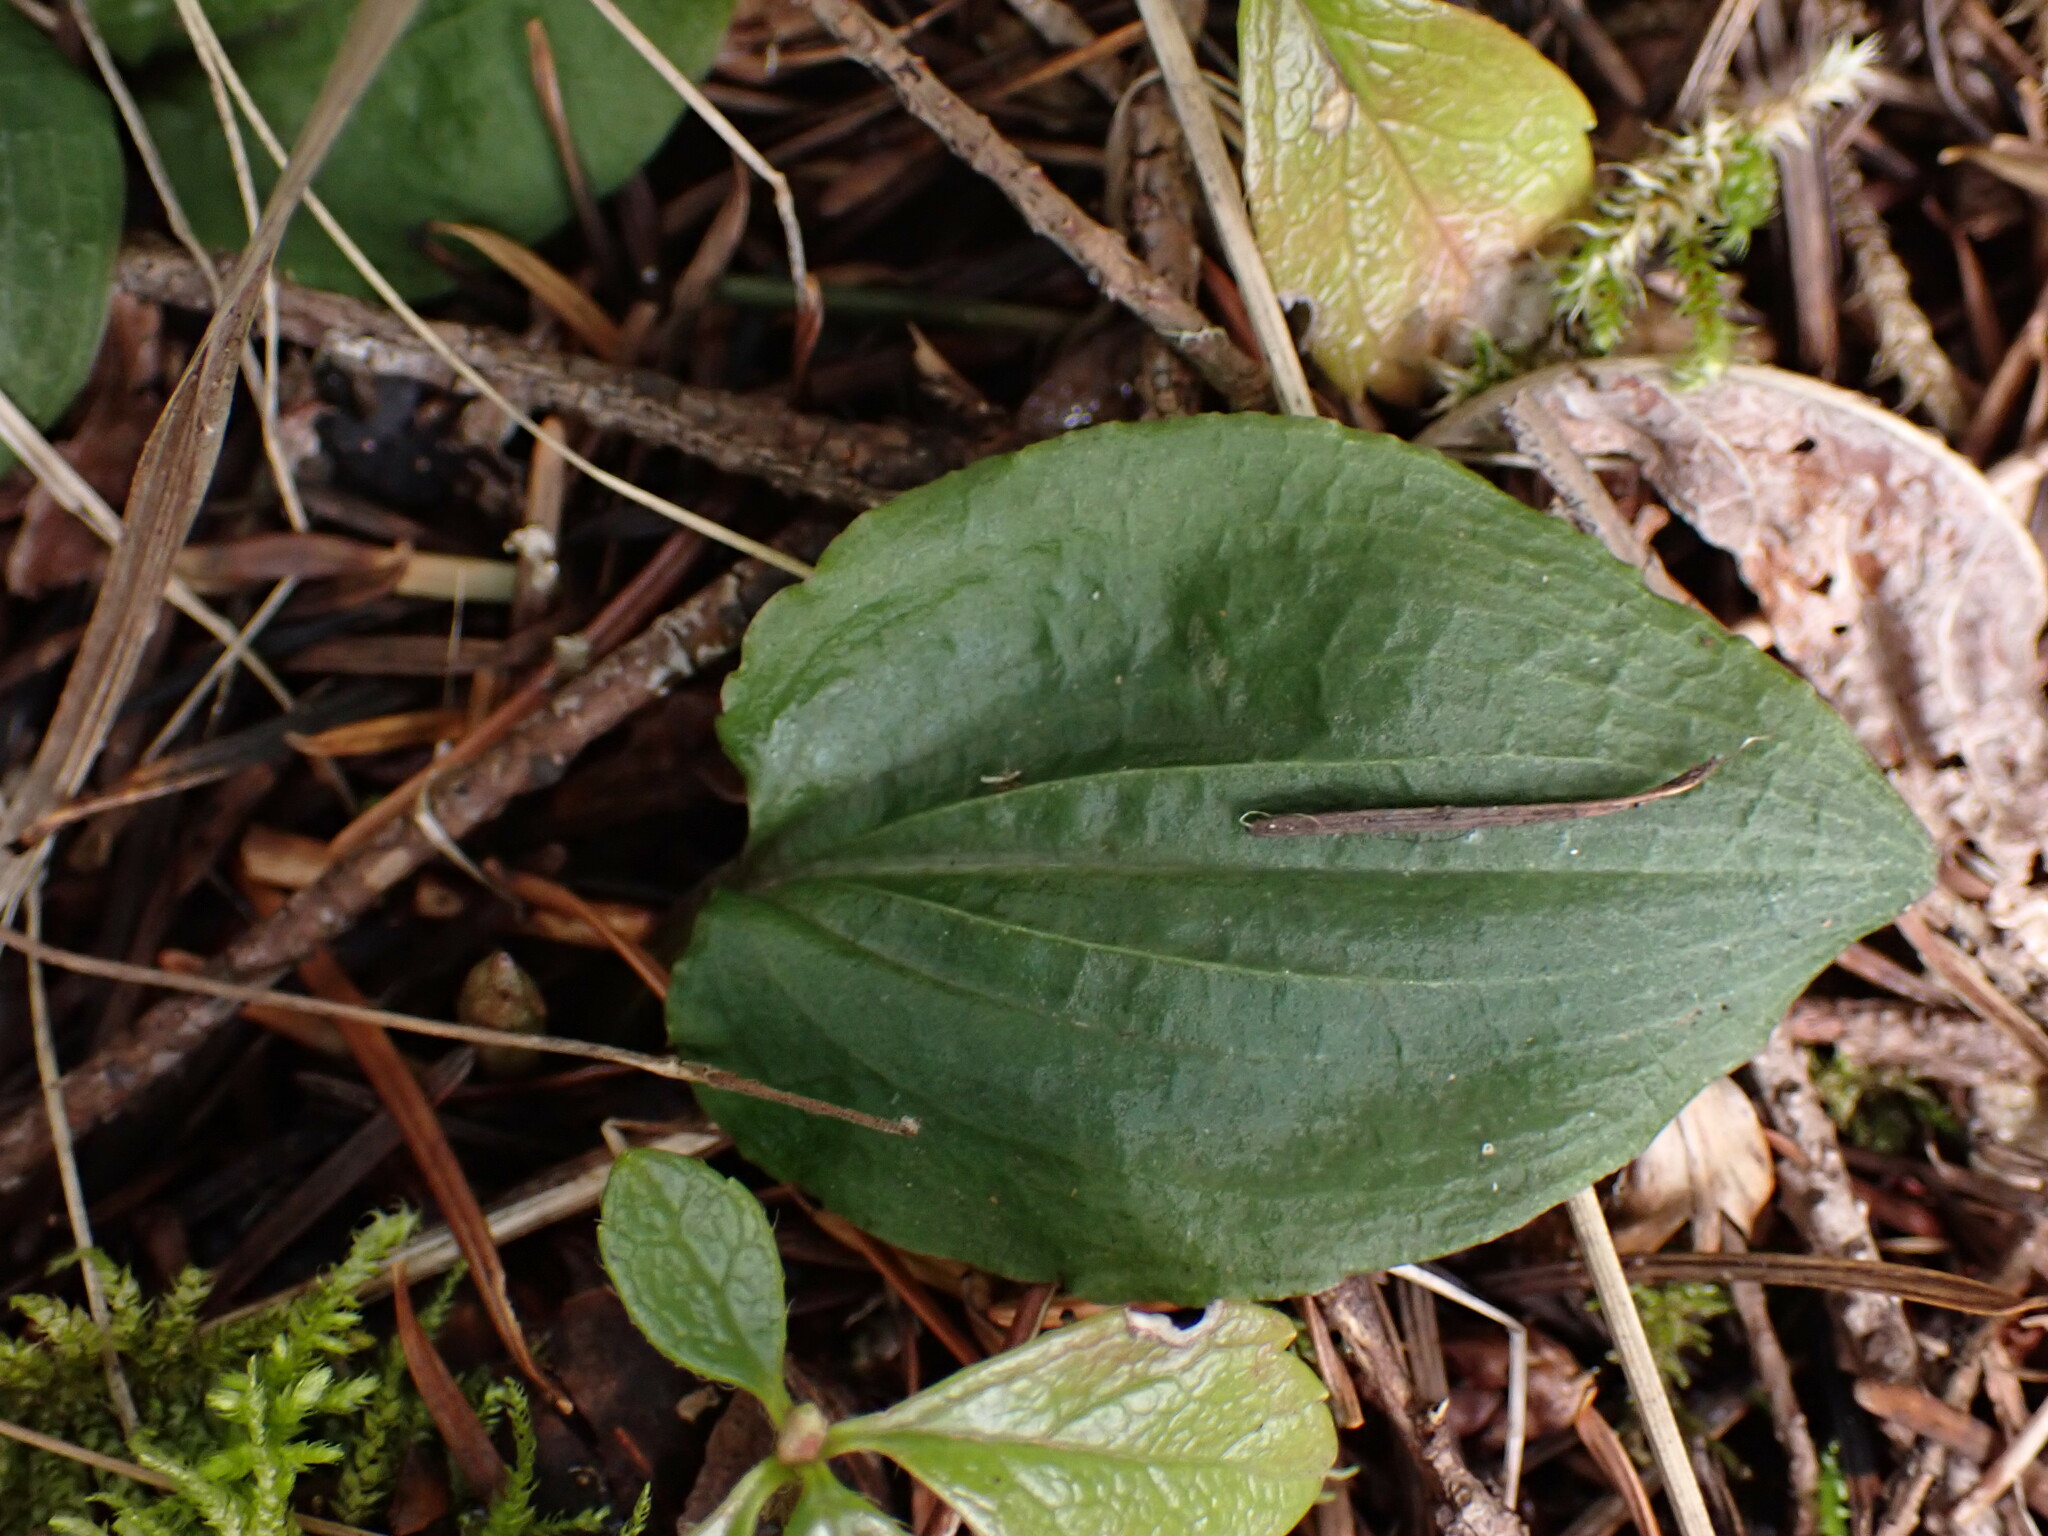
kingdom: Plantae
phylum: Tracheophyta
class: Liliopsida
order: Asparagales
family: Orchidaceae
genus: Calypso
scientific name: Calypso bulbosa
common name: Calypso
